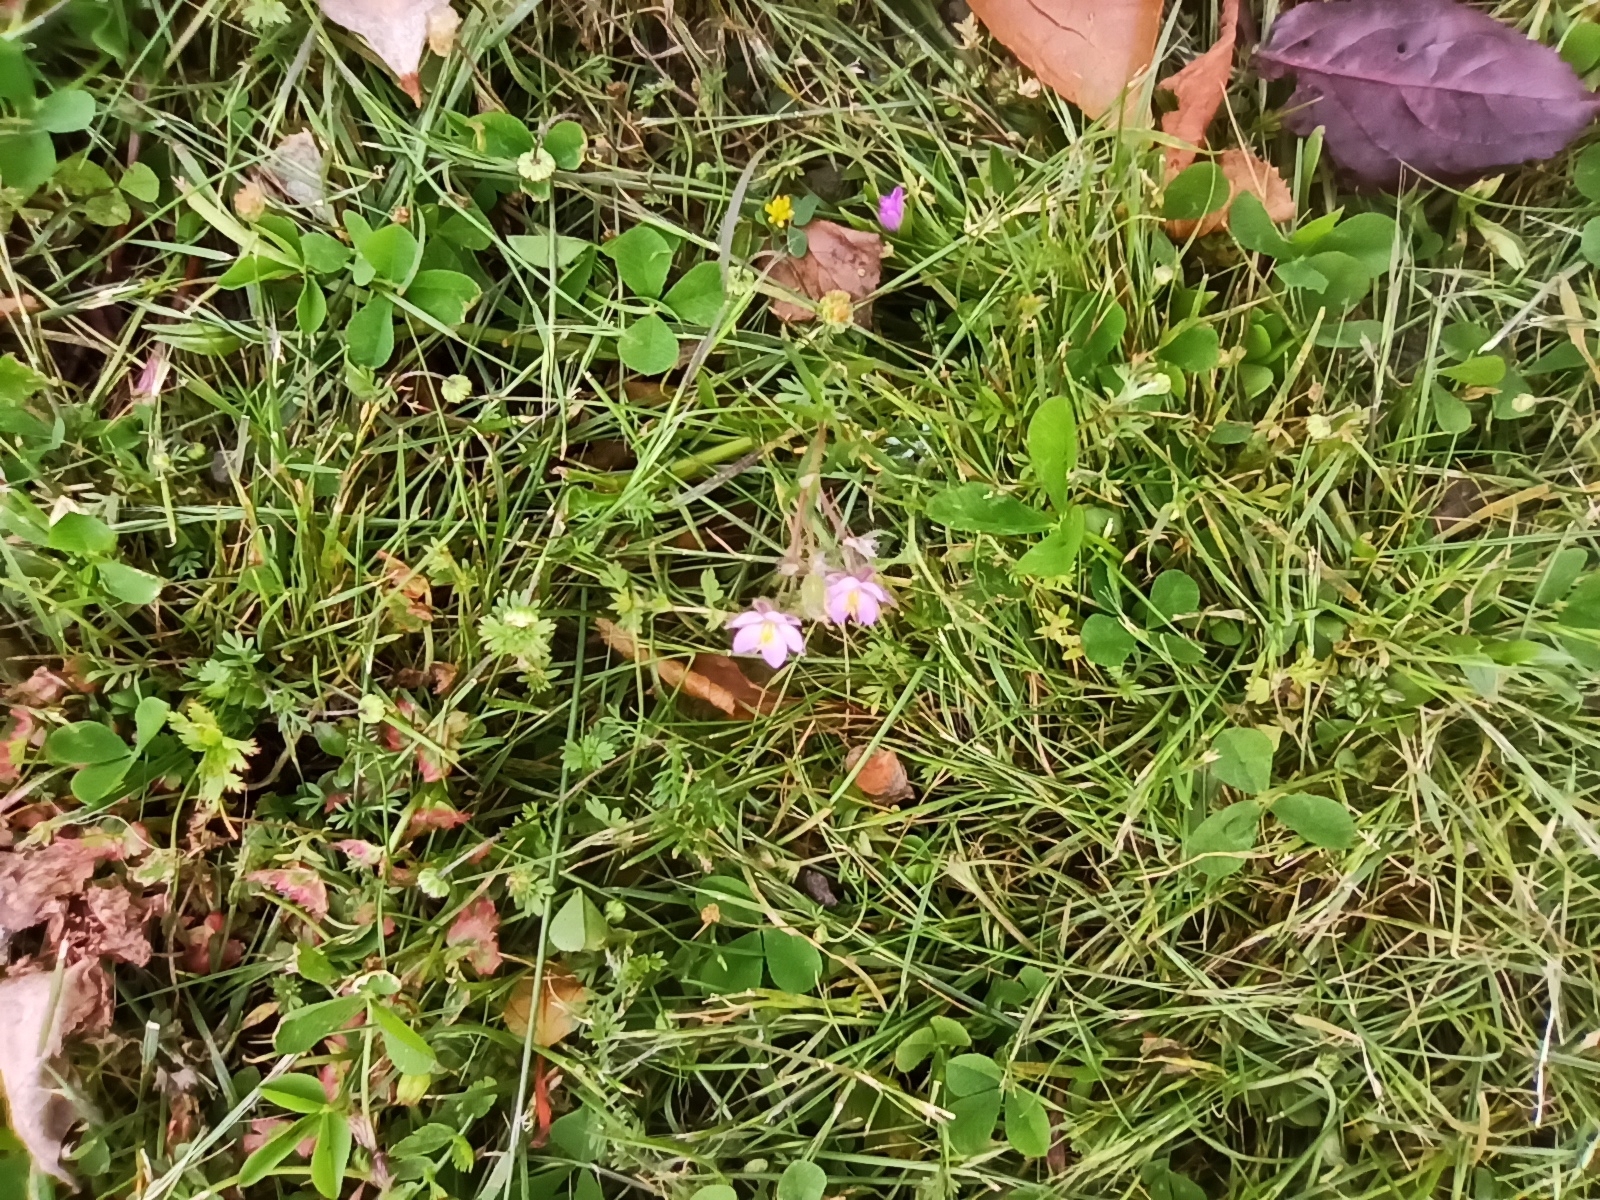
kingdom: Plantae
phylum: Tracheophyta
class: Magnoliopsida
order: Caryophyllales
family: Caryophyllaceae
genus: Spergularia
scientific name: Spergularia rubra
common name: Red sand-spurrey
